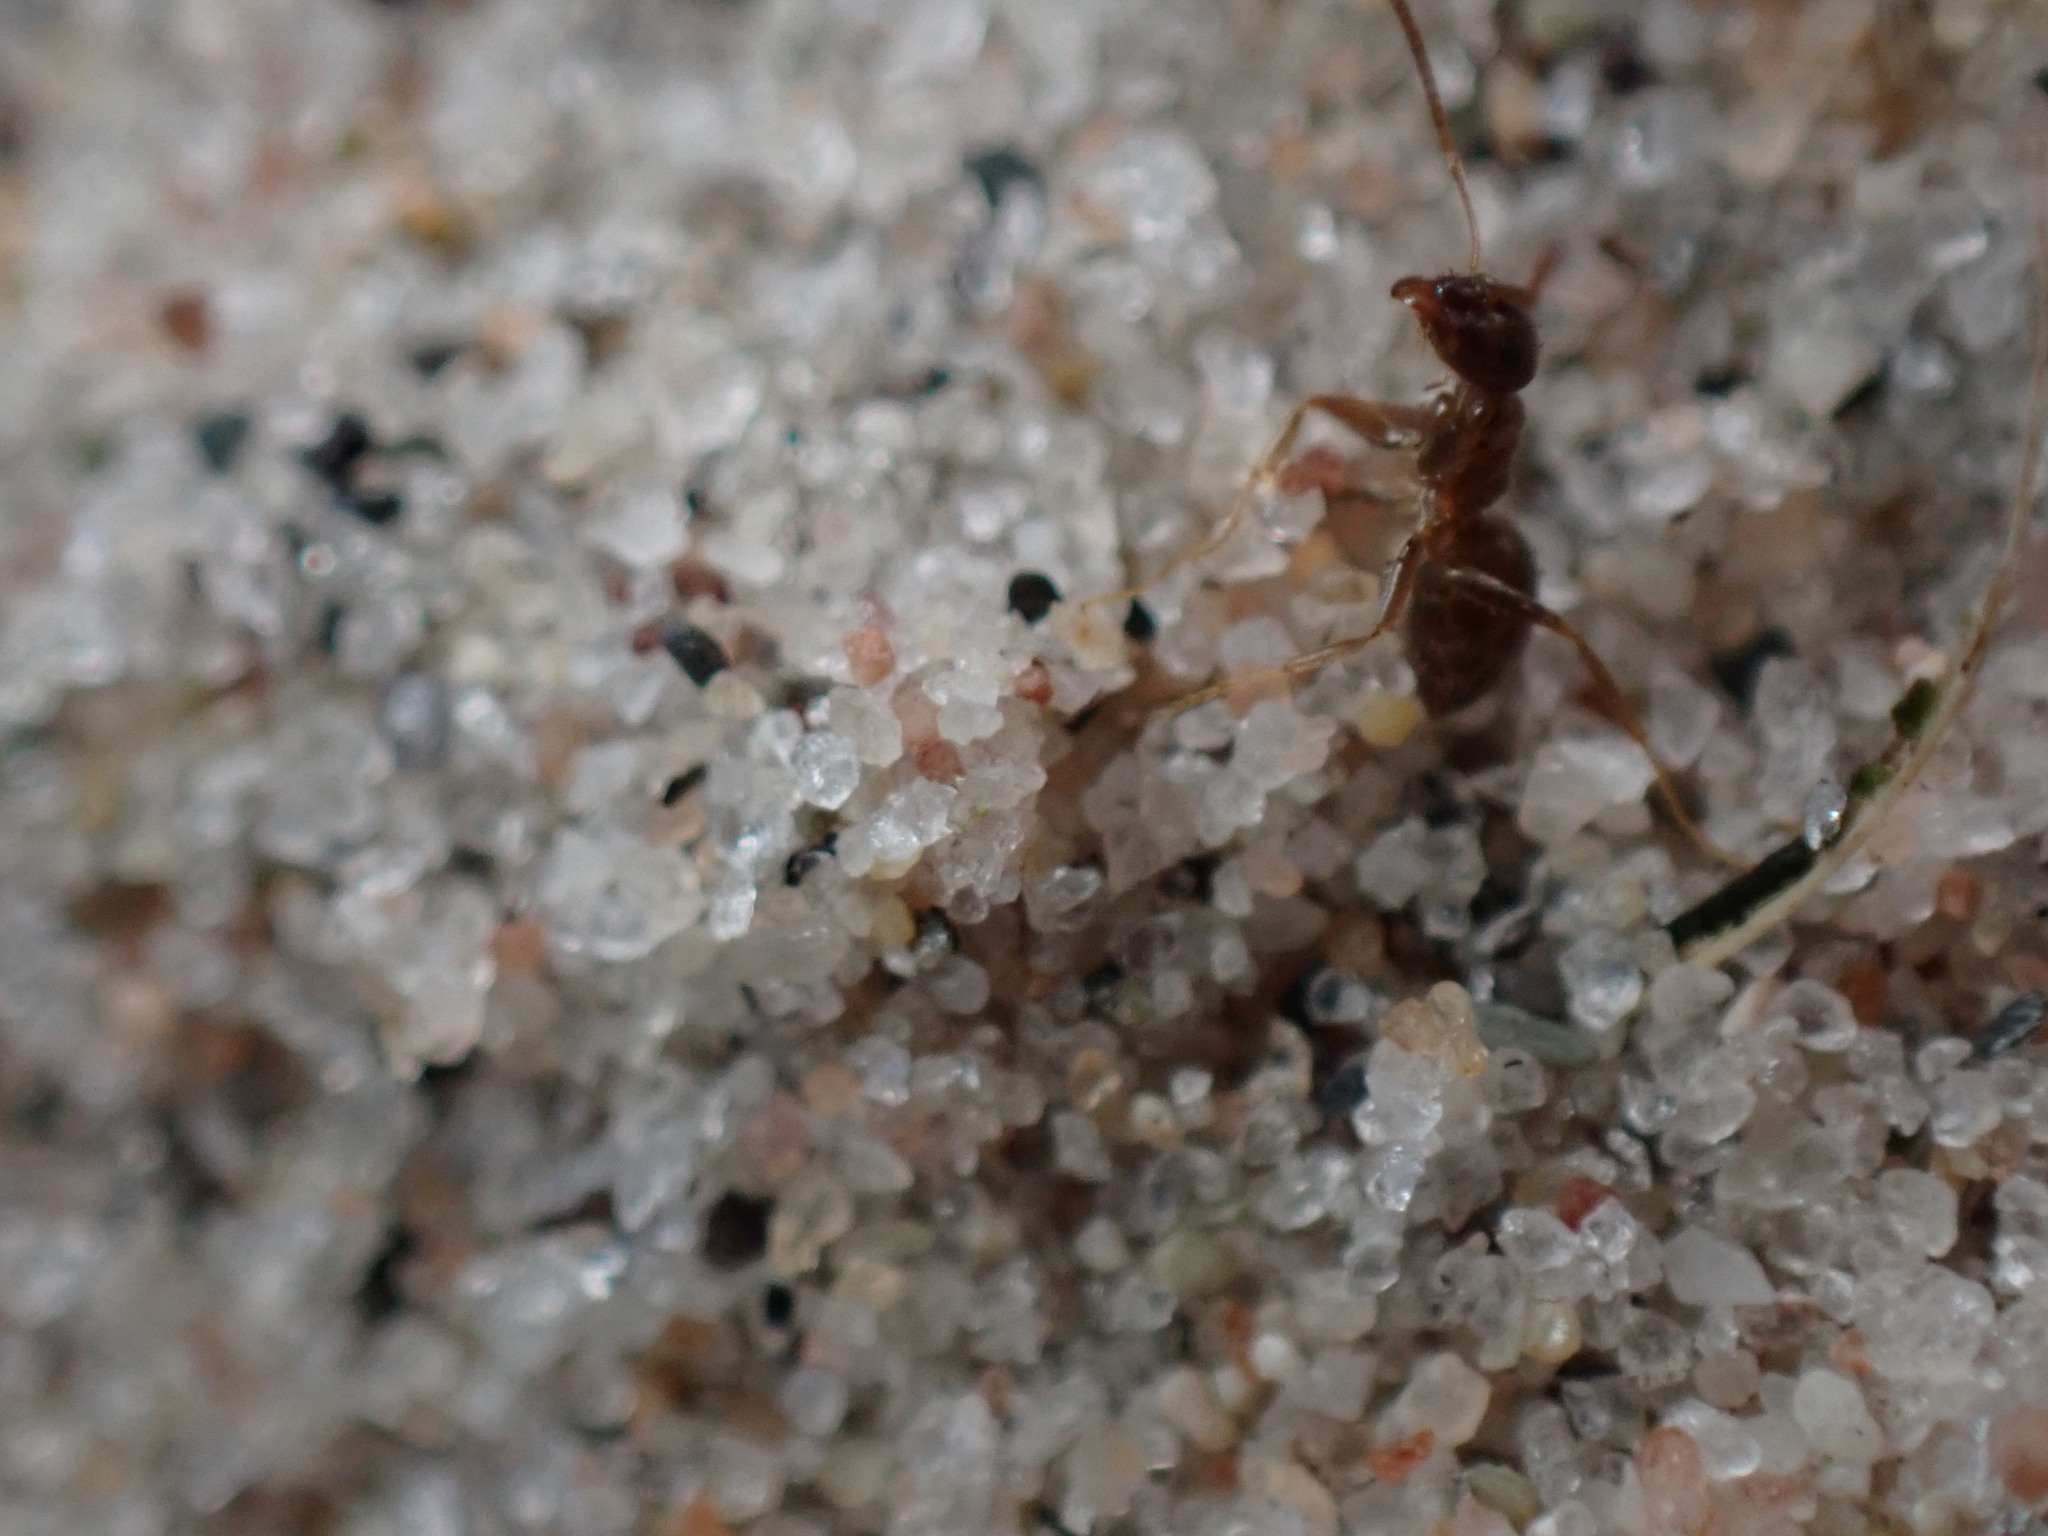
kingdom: Animalia
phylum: Arthropoda
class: Insecta
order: Hymenoptera
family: Formicidae
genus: Lasius
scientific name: Lasius neoniger
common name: Turfgrass ant
